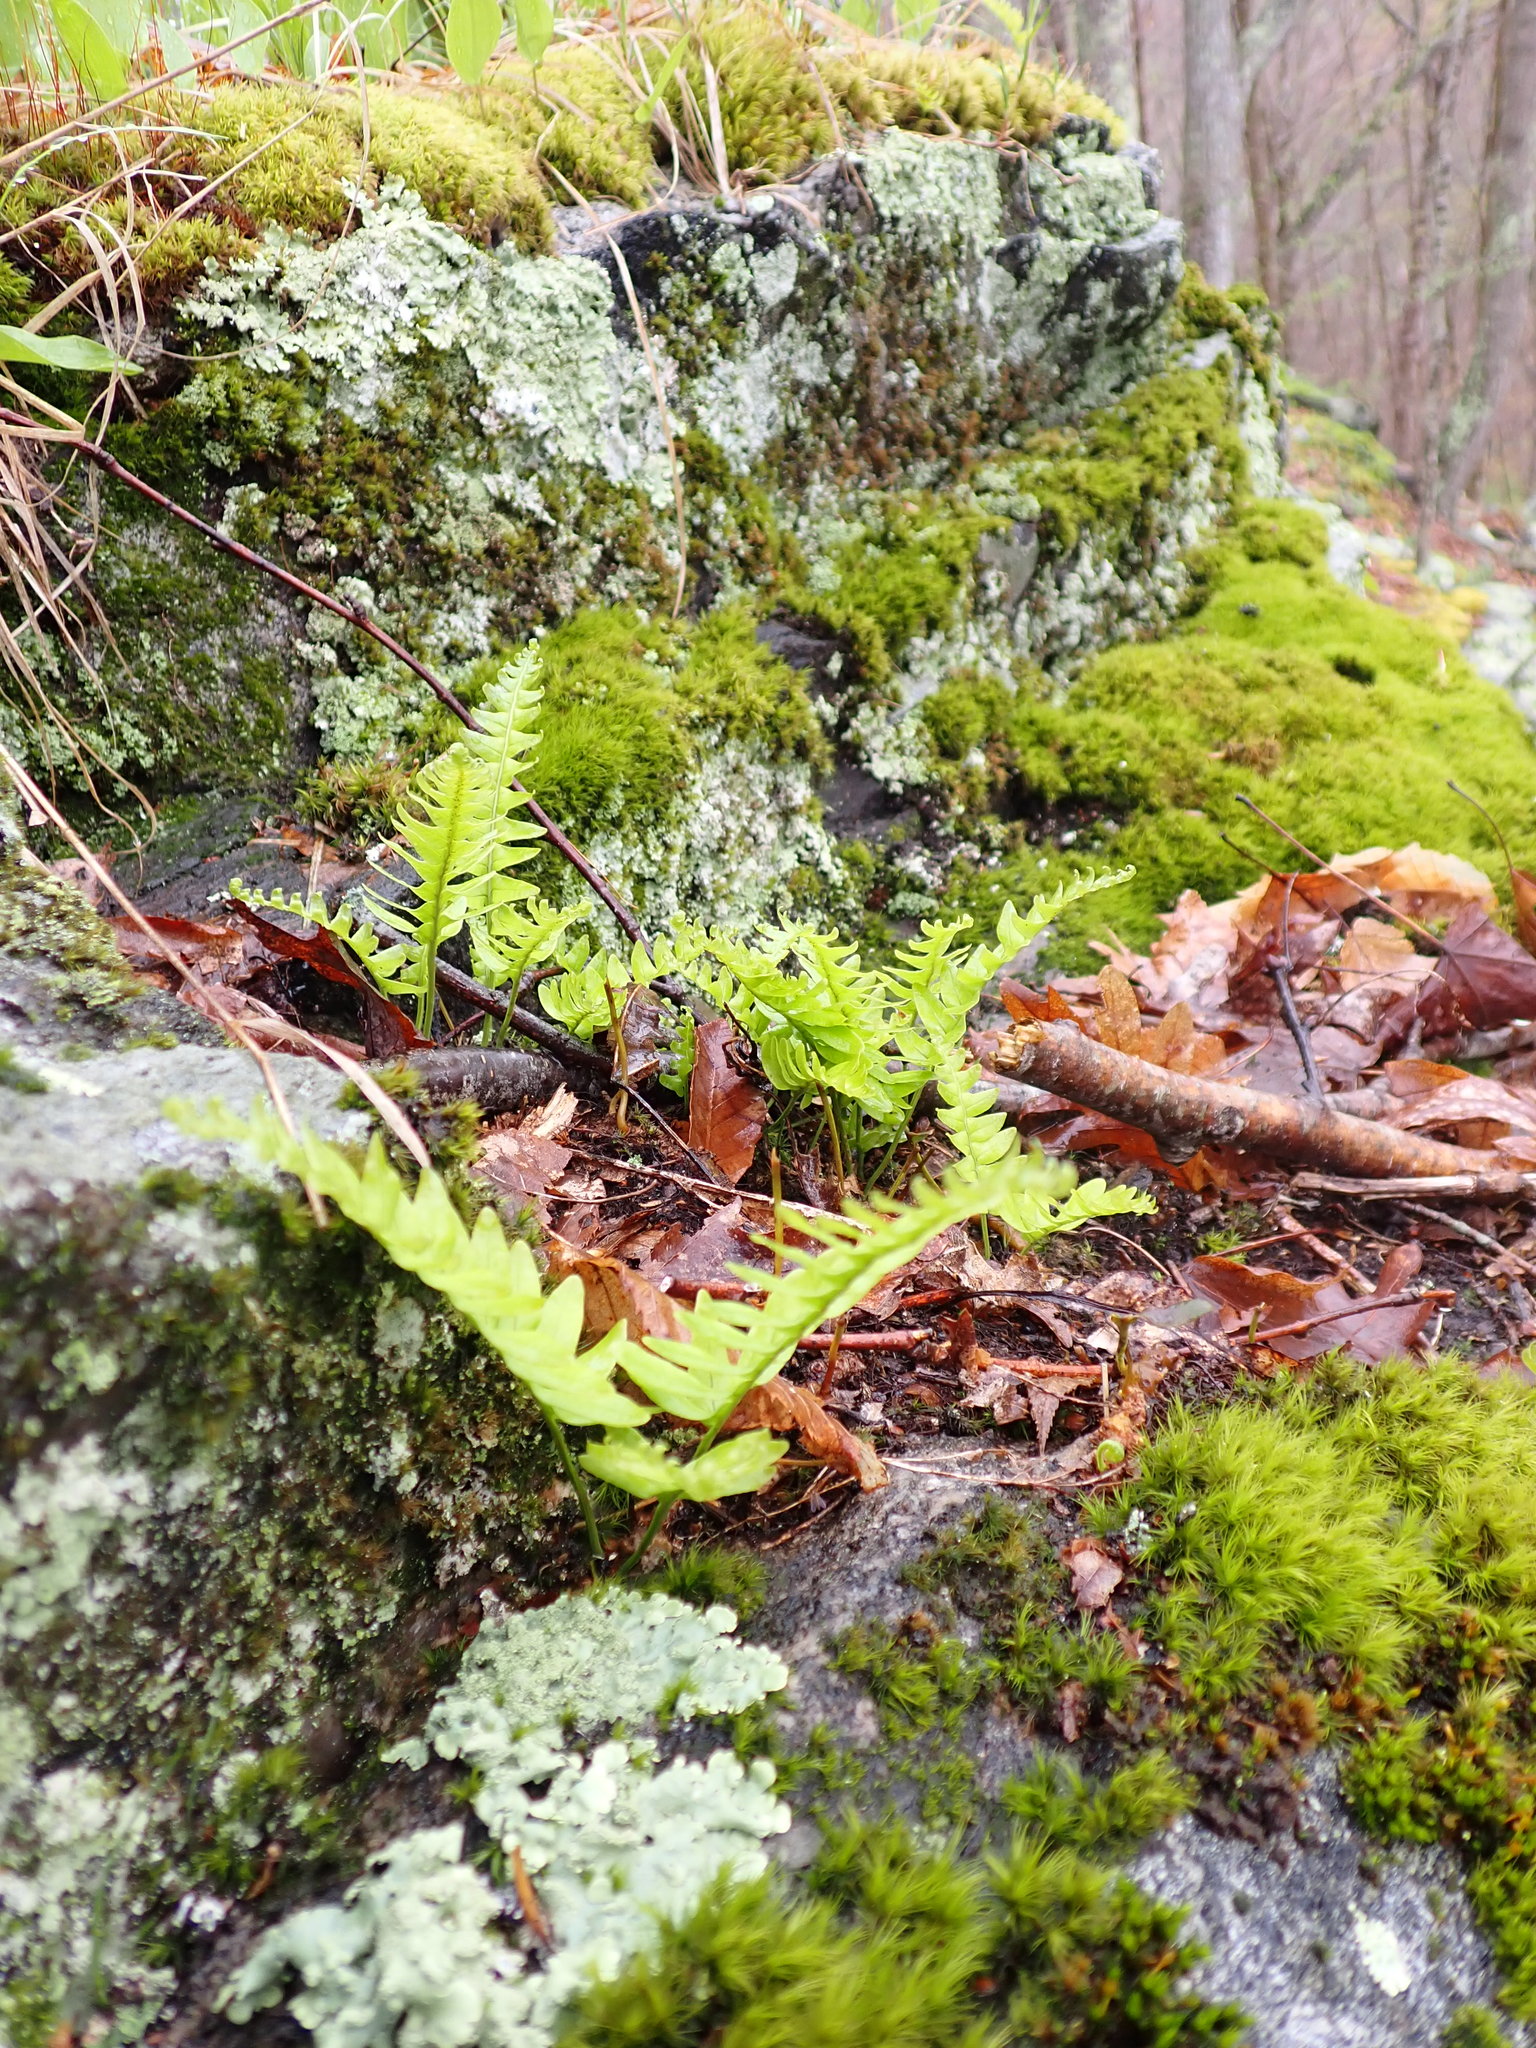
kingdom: Plantae
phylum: Tracheophyta
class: Polypodiopsida
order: Polypodiales
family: Polypodiaceae
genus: Polypodium
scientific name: Polypodium virginianum
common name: American wall fern
